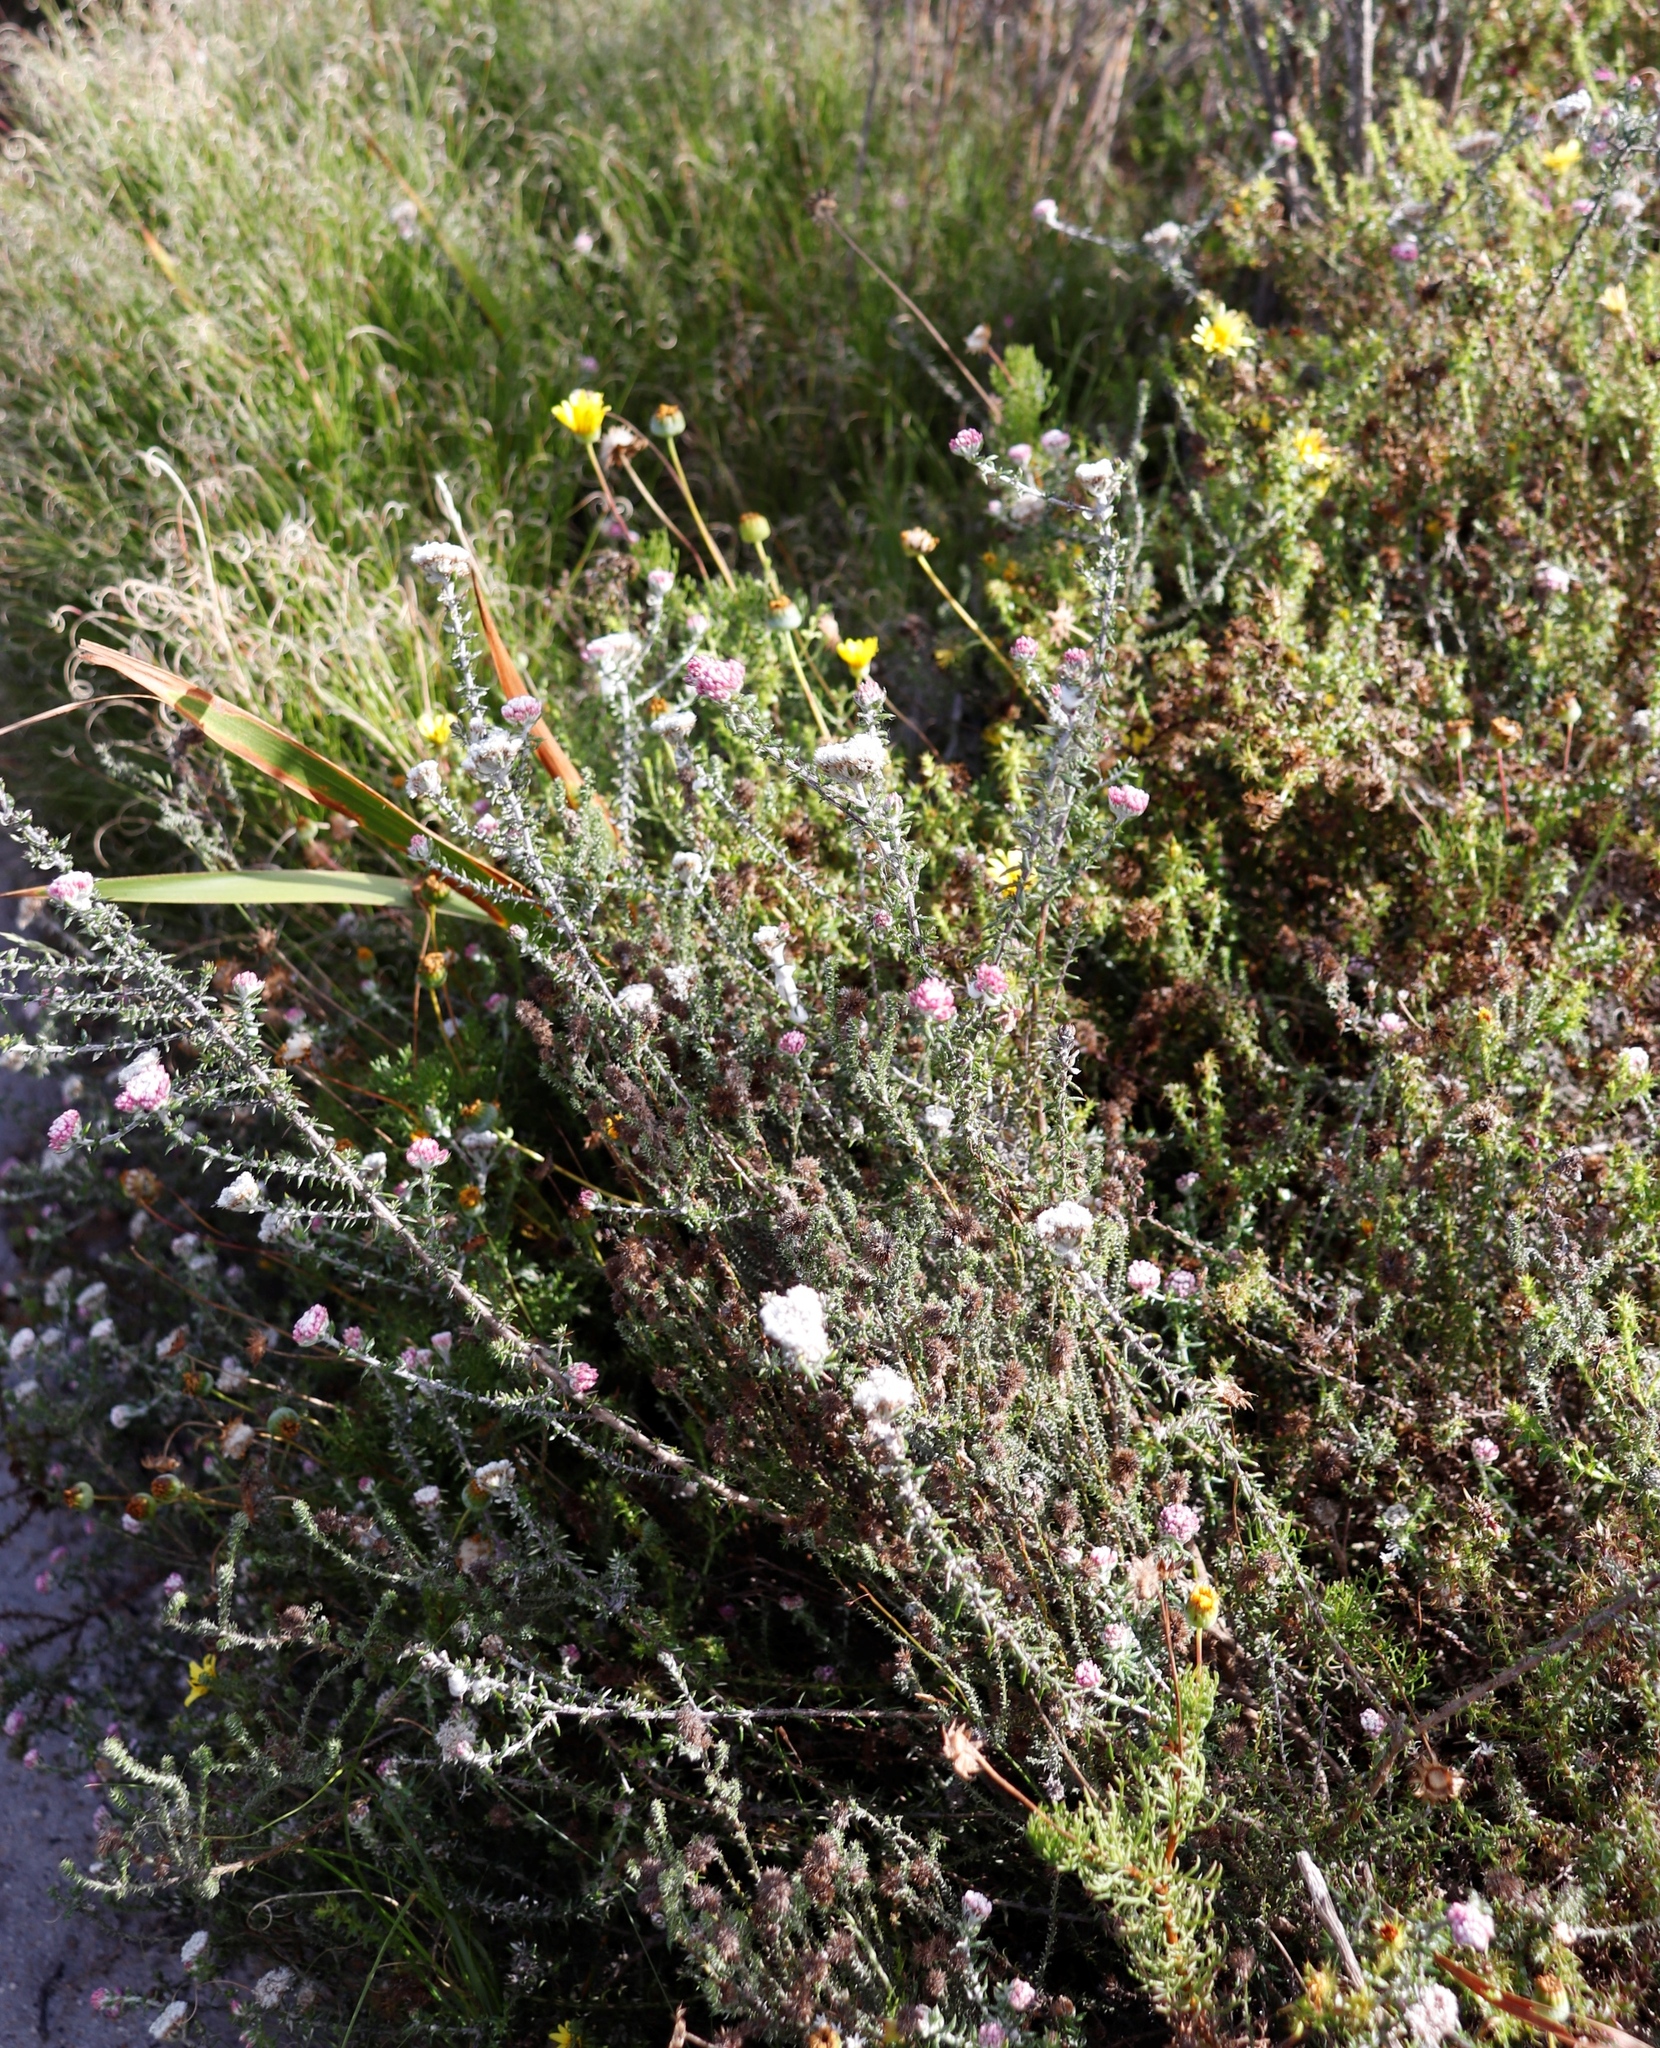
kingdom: Plantae
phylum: Tracheophyta
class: Magnoliopsida
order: Asterales
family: Asteraceae
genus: Euryops
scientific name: Euryops abrotanifolius
